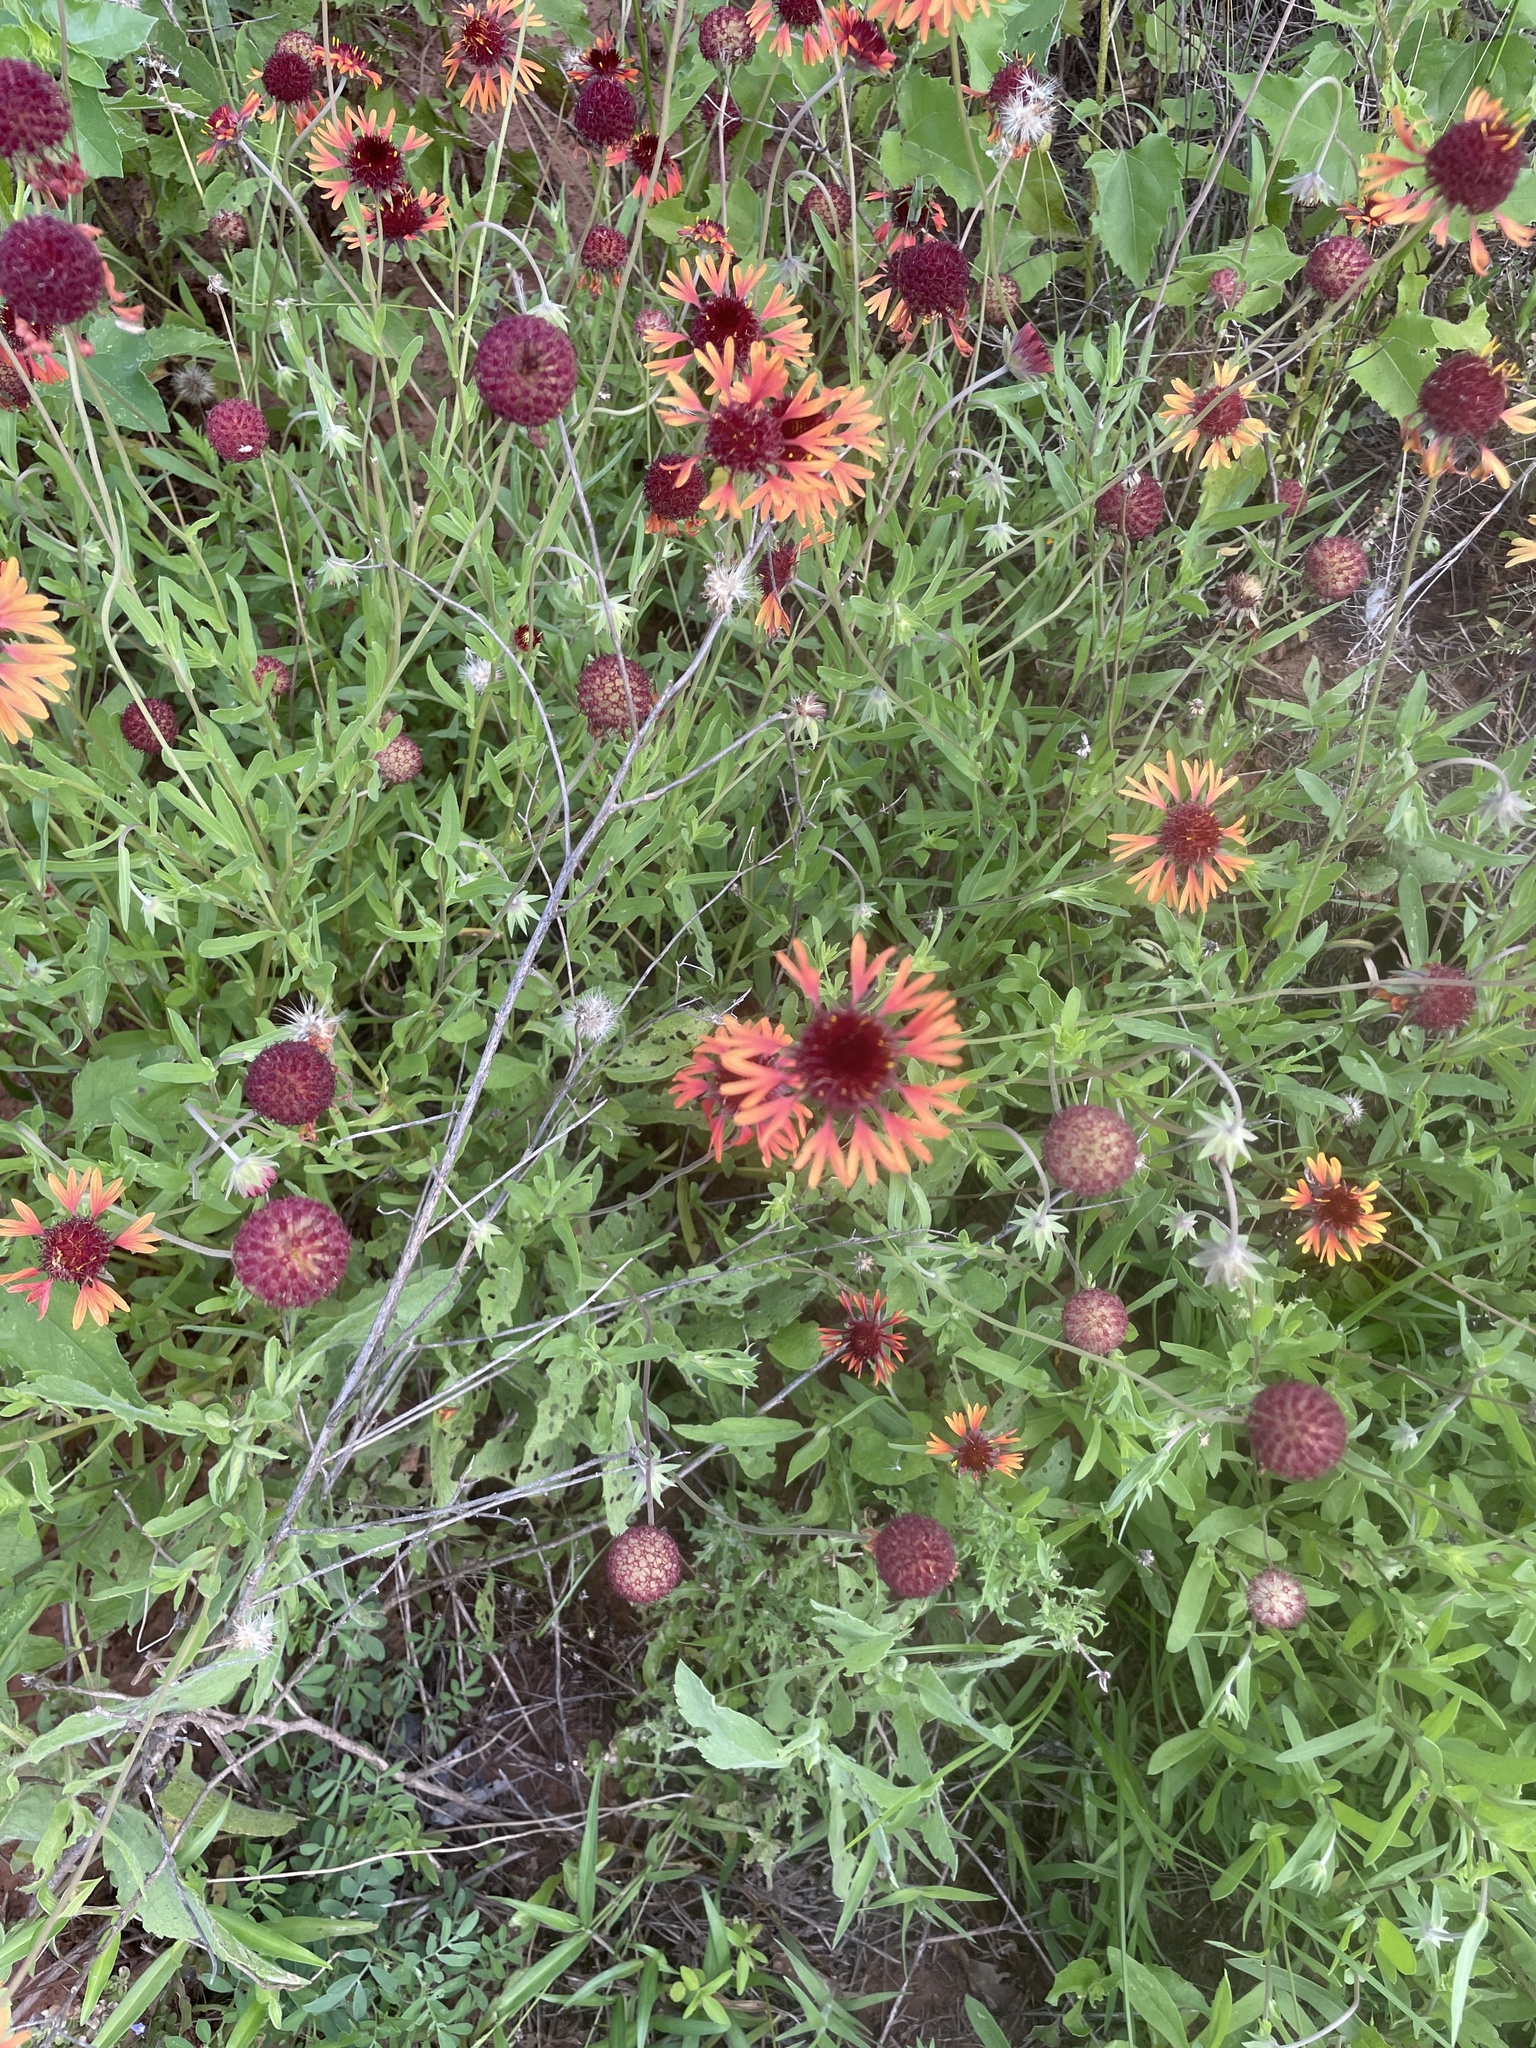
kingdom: Plantae
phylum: Tracheophyta
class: Magnoliopsida
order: Asterales
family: Asteraceae
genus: Gaillardia
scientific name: Gaillardia aestivalis
